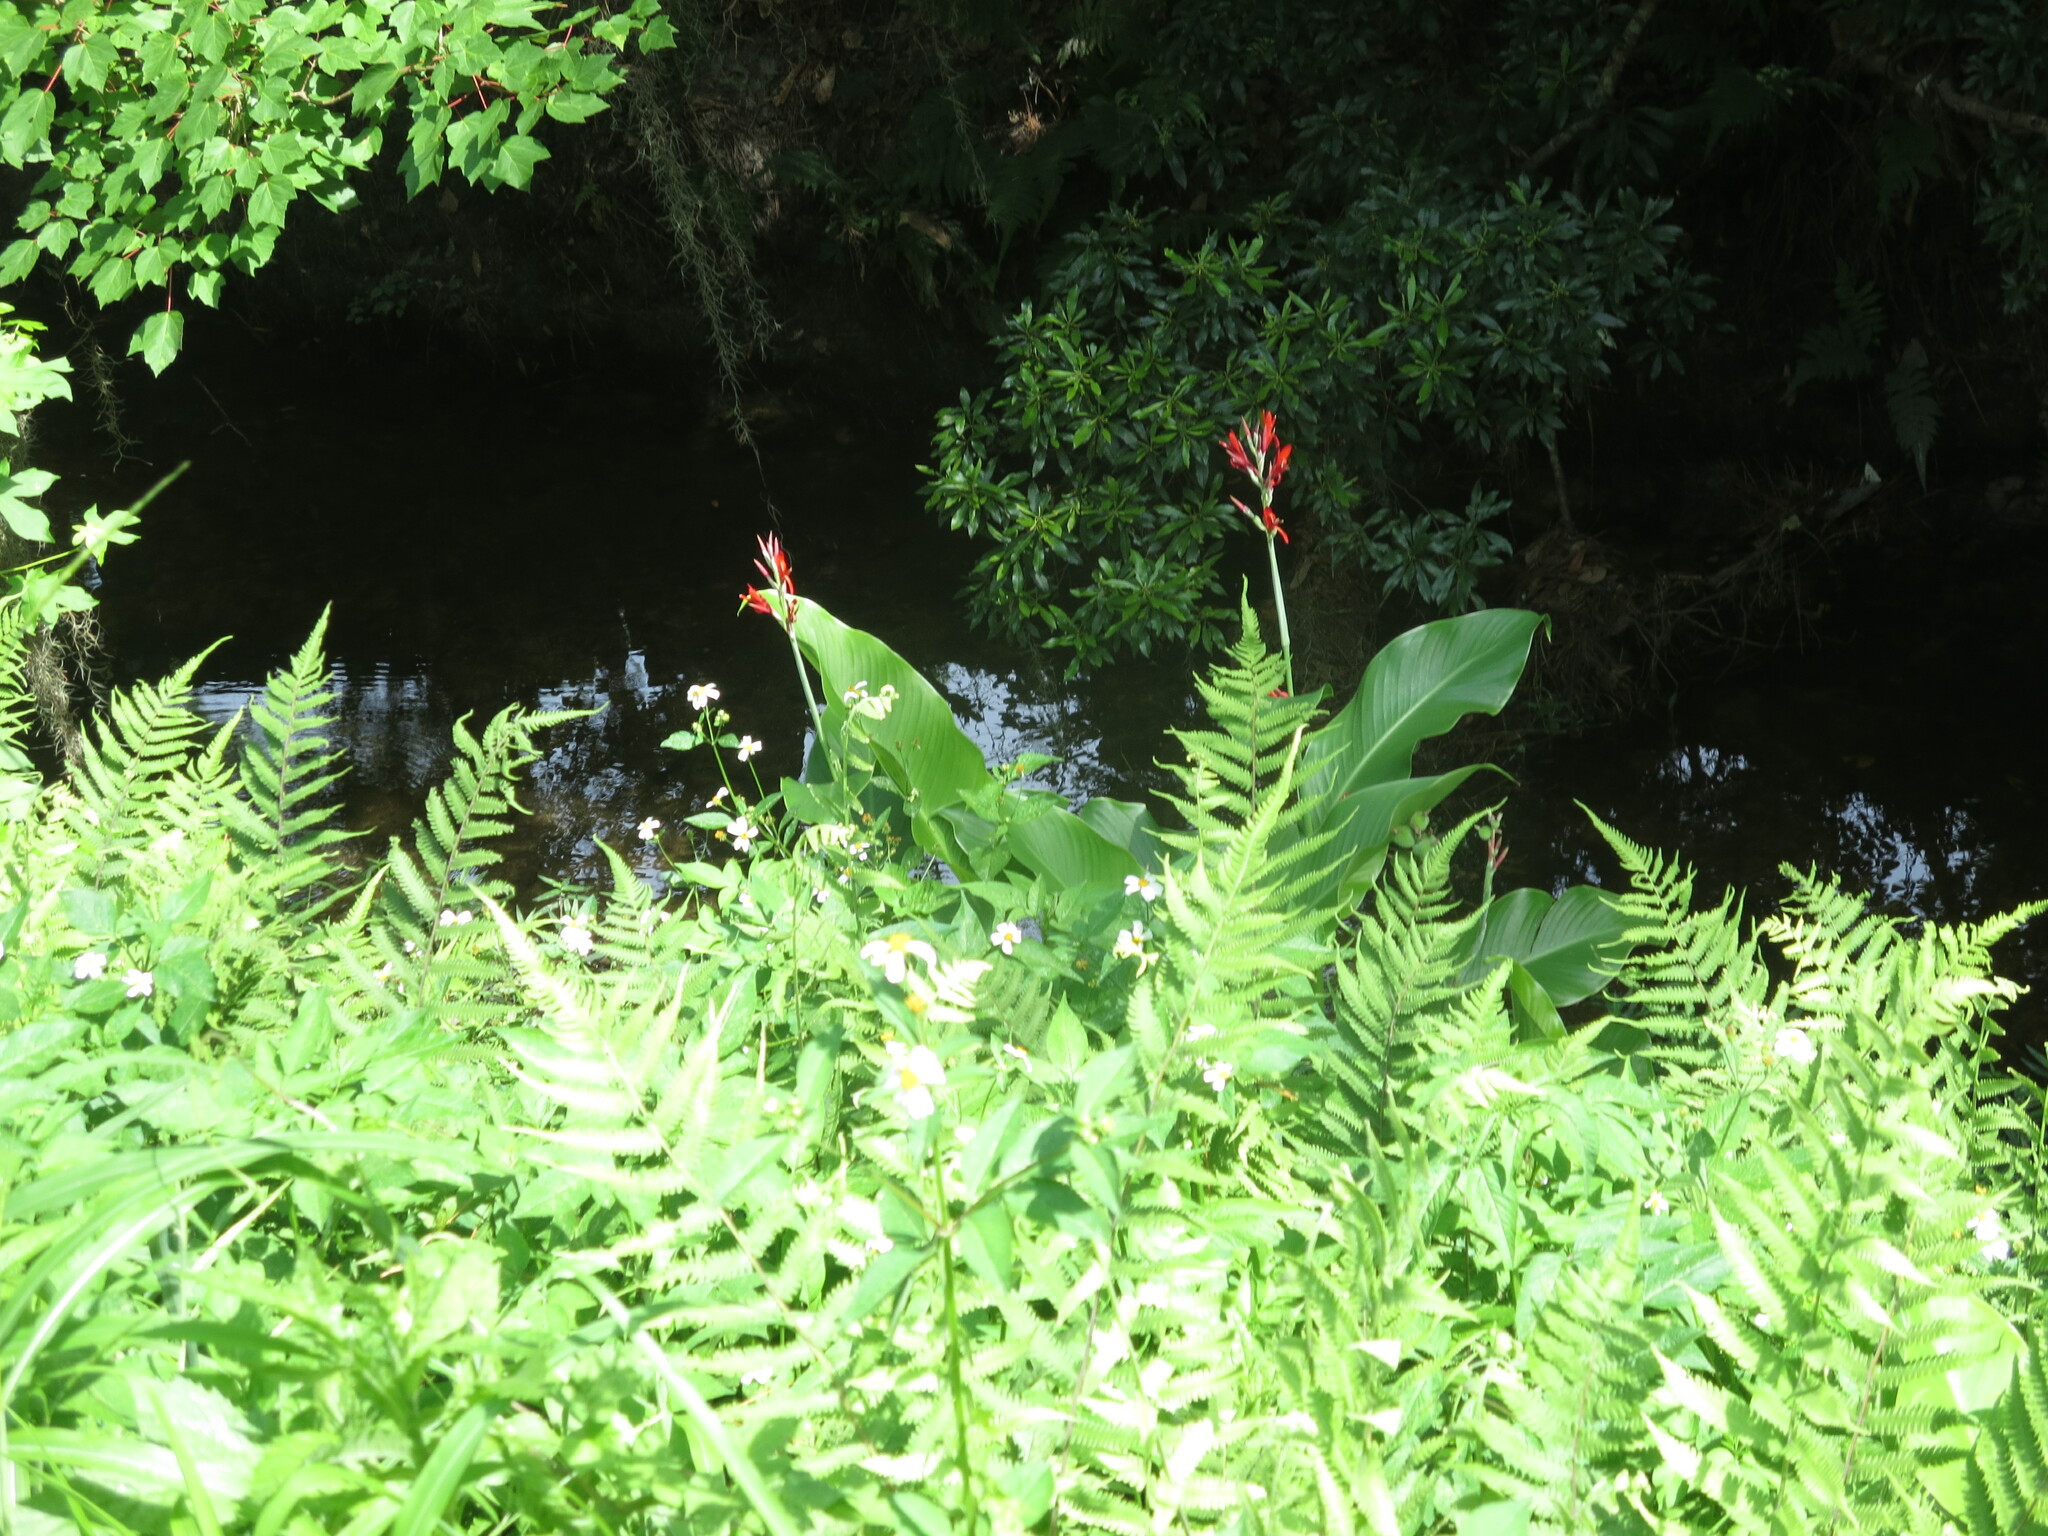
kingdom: Plantae
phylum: Tracheophyta
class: Liliopsida
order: Zingiberales
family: Cannaceae
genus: Canna
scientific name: Canna indica
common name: Indian shot
